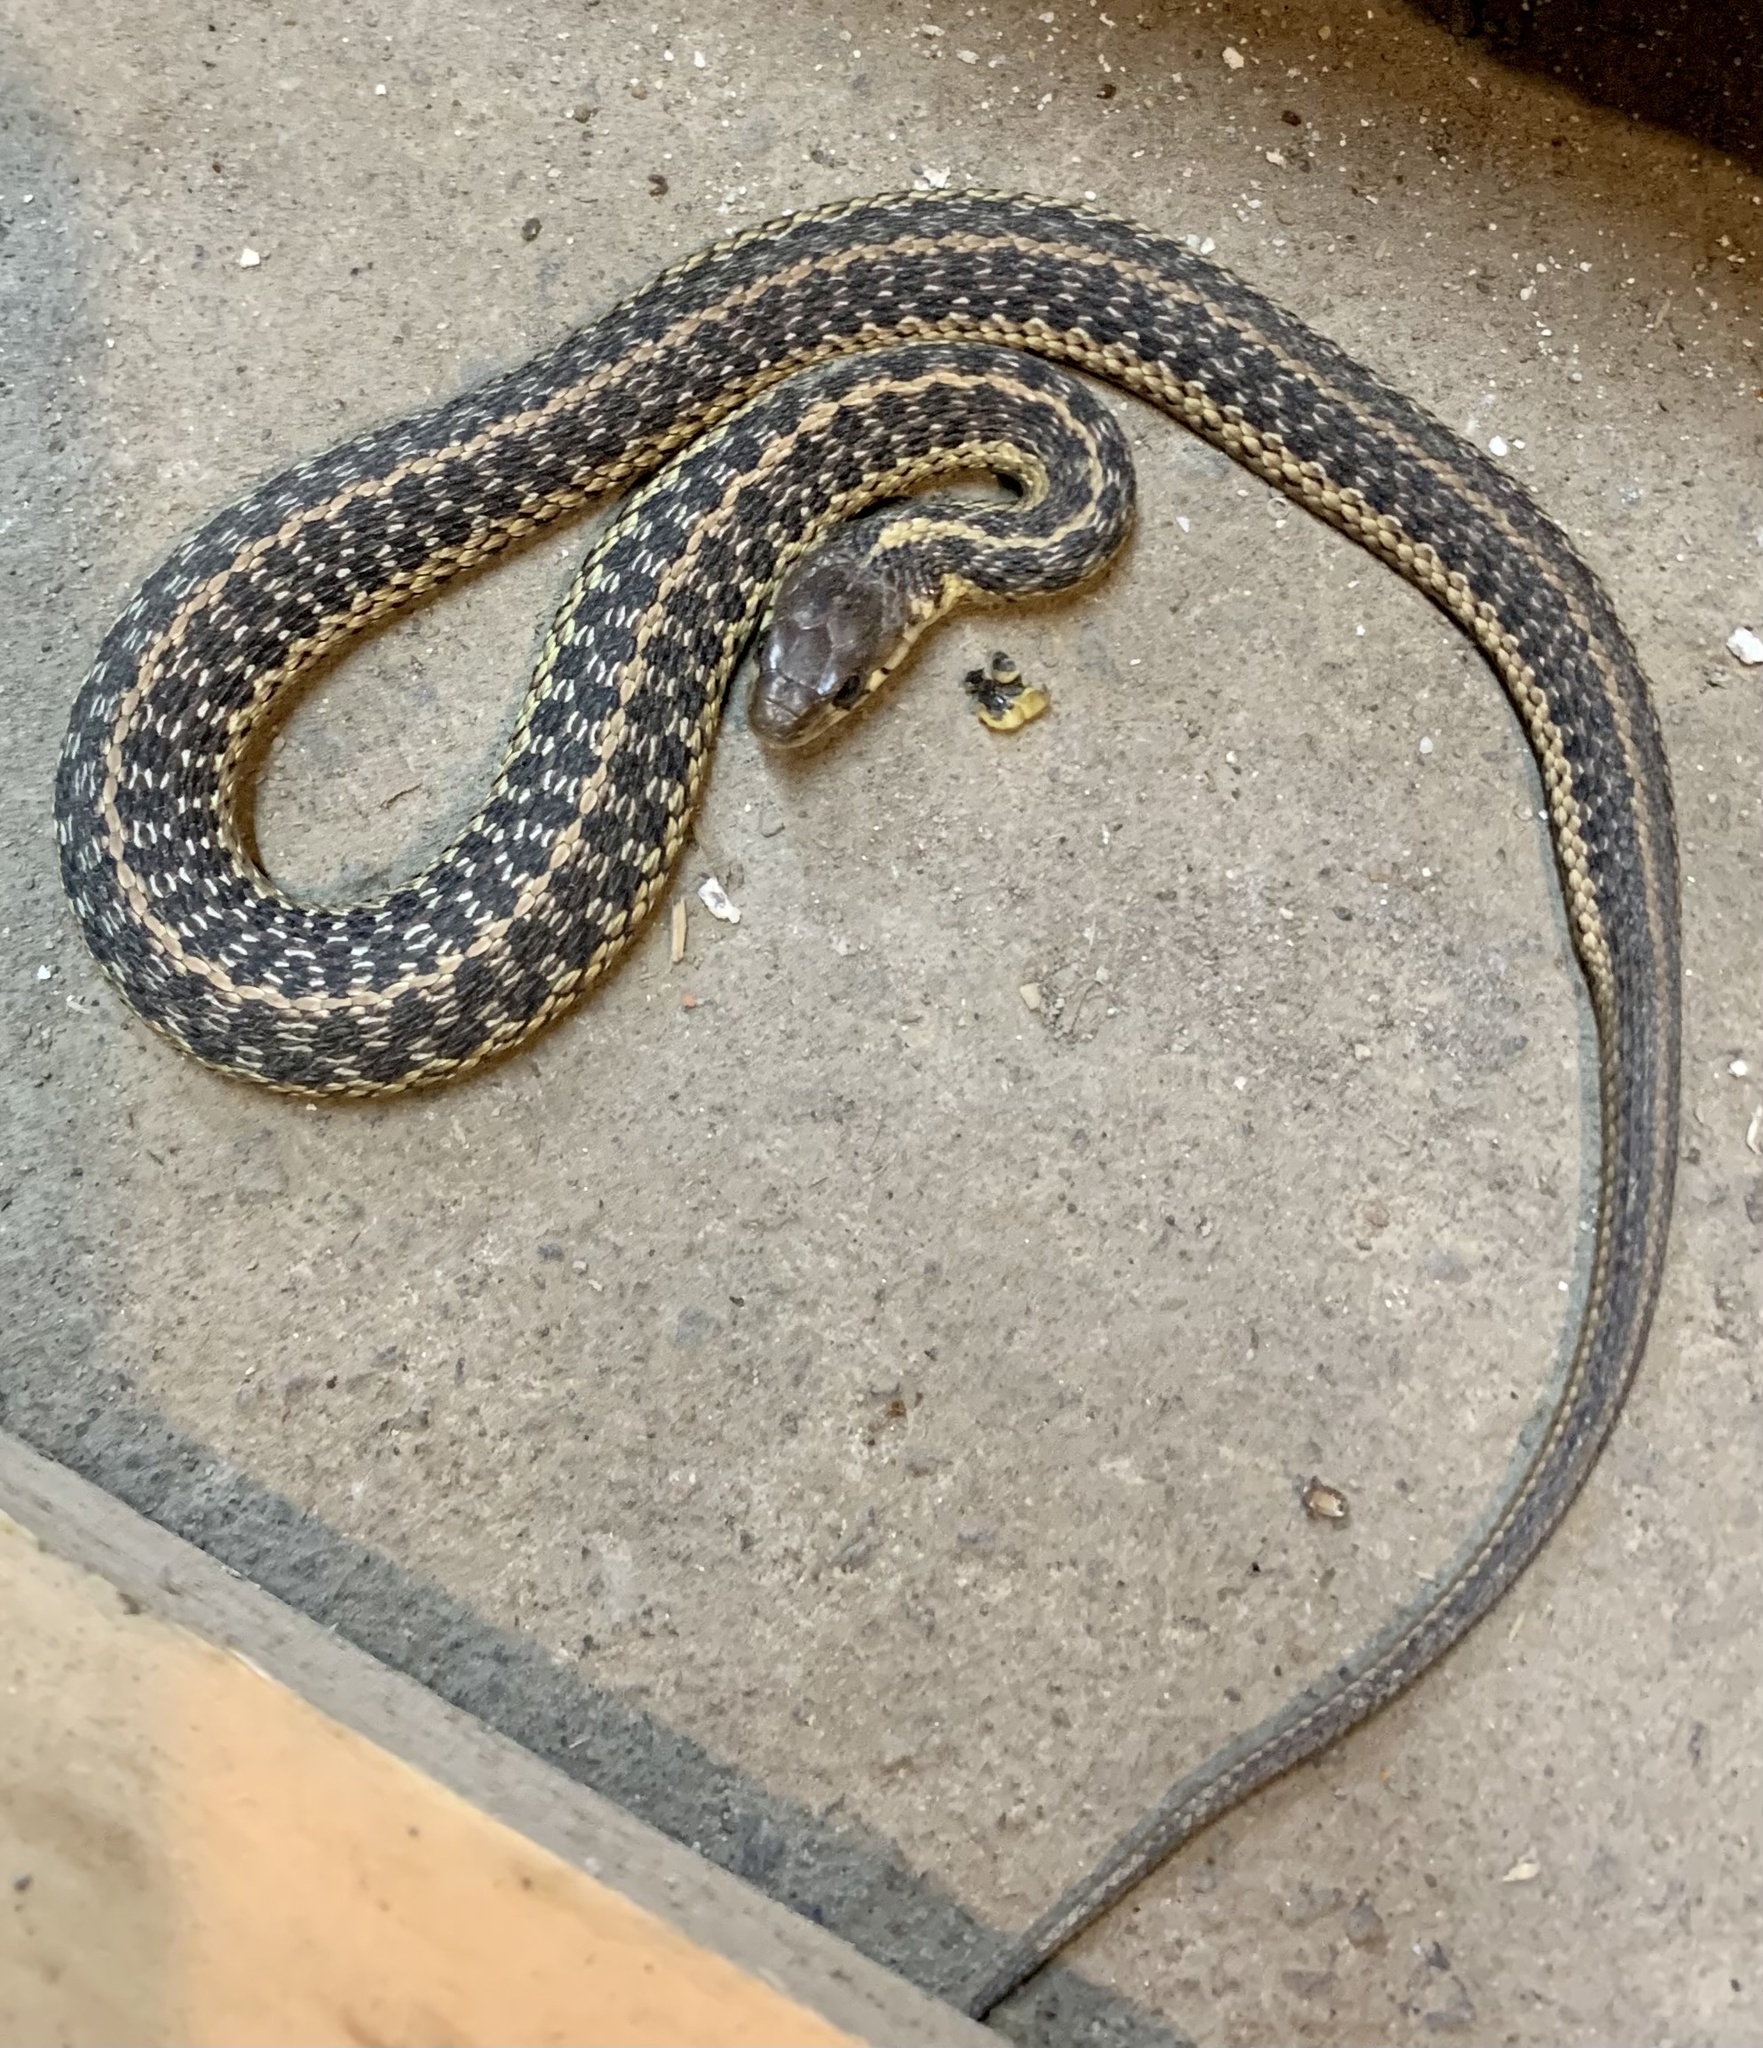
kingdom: Animalia
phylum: Chordata
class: Squamata
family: Colubridae
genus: Thamnophis
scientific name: Thamnophis sirtalis
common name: Common garter snake
